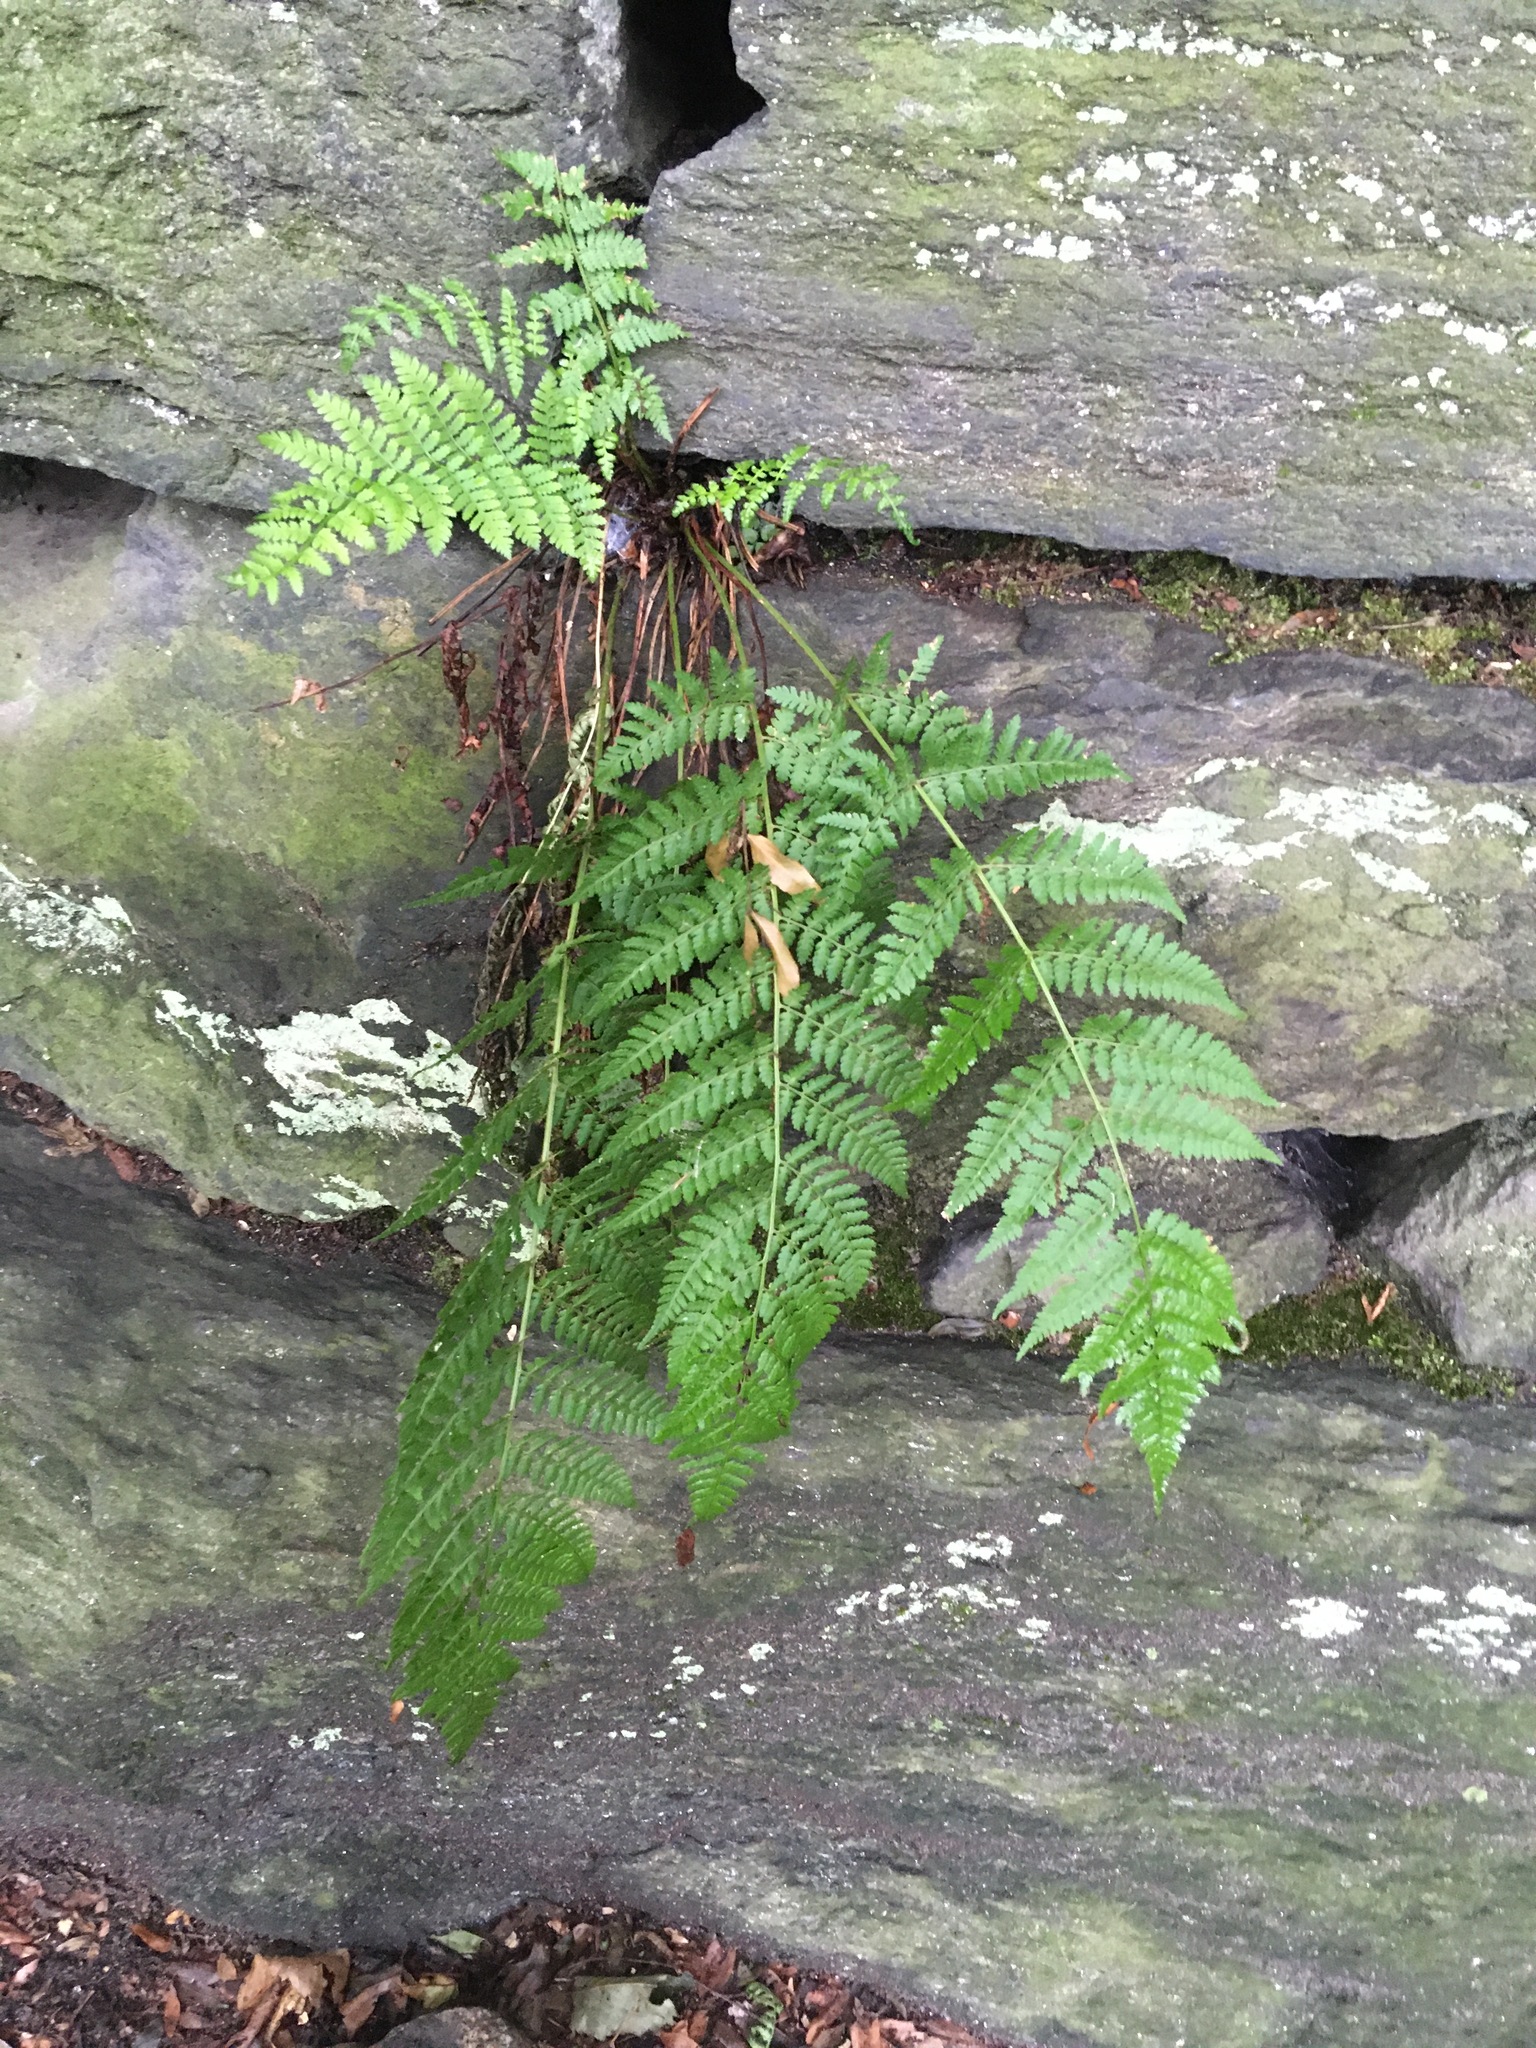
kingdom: Plantae
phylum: Tracheophyta
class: Polypodiopsida
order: Polypodiales
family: Dryopteridaceae
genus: Dryopteris
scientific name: Dryopteris intermedia
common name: Evergreen wood fern
